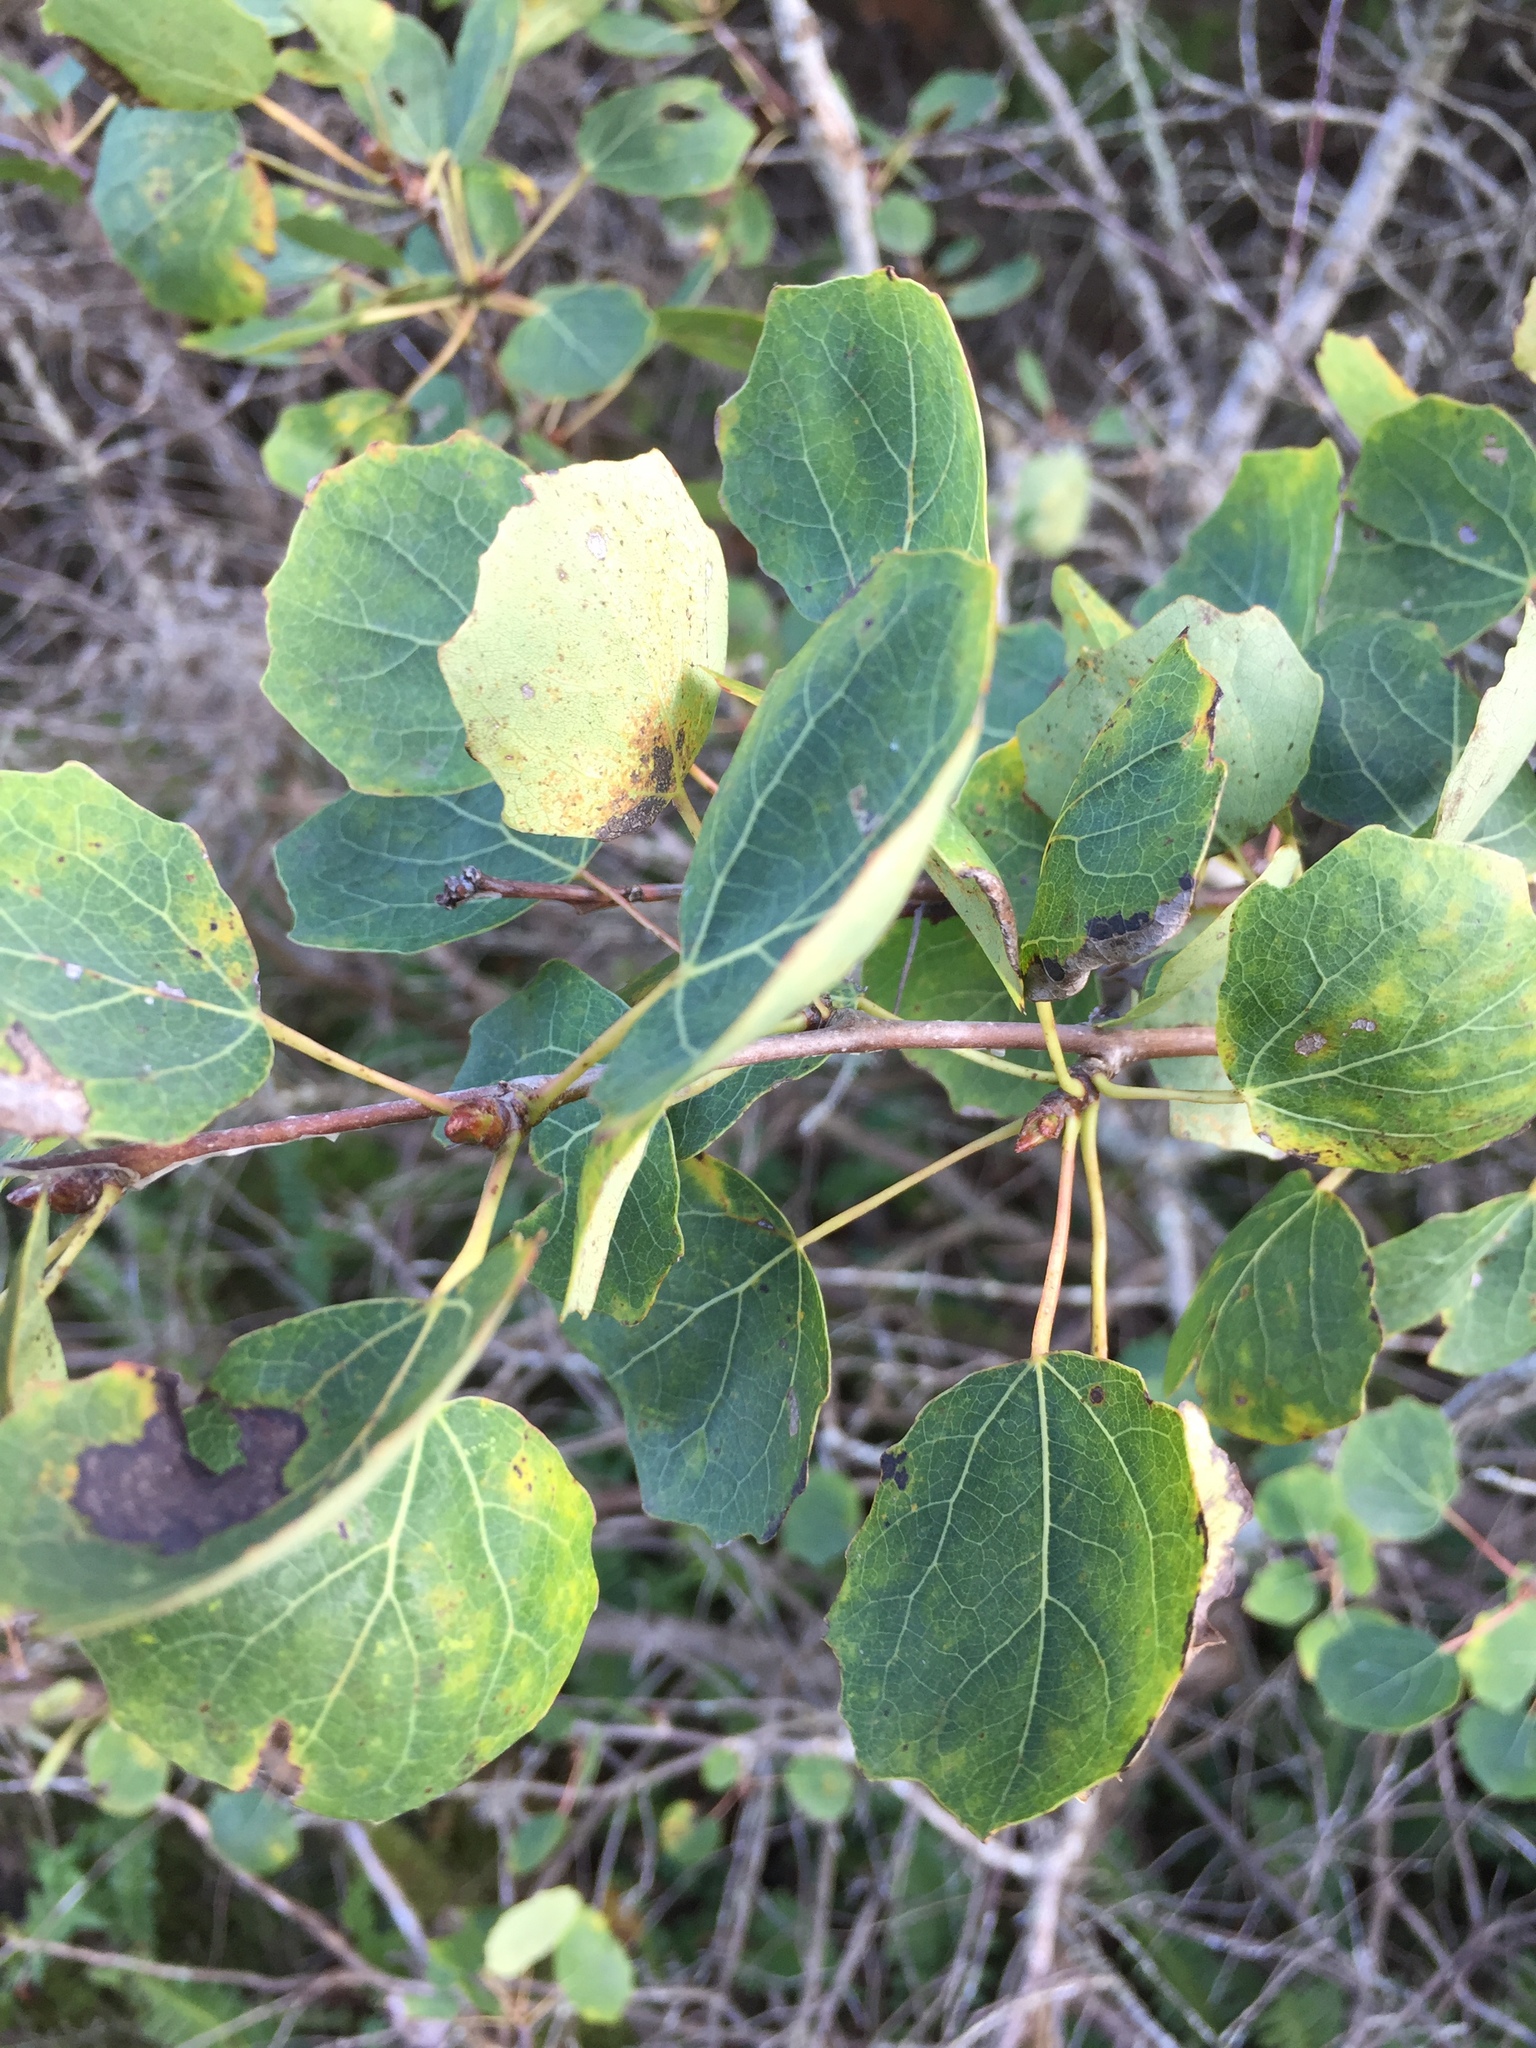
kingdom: Plantae
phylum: Tracheophyta
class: Magnoliopsida
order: Malpighiales
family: Salicaceae
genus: Populus
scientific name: Populus tremula
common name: European aspen
